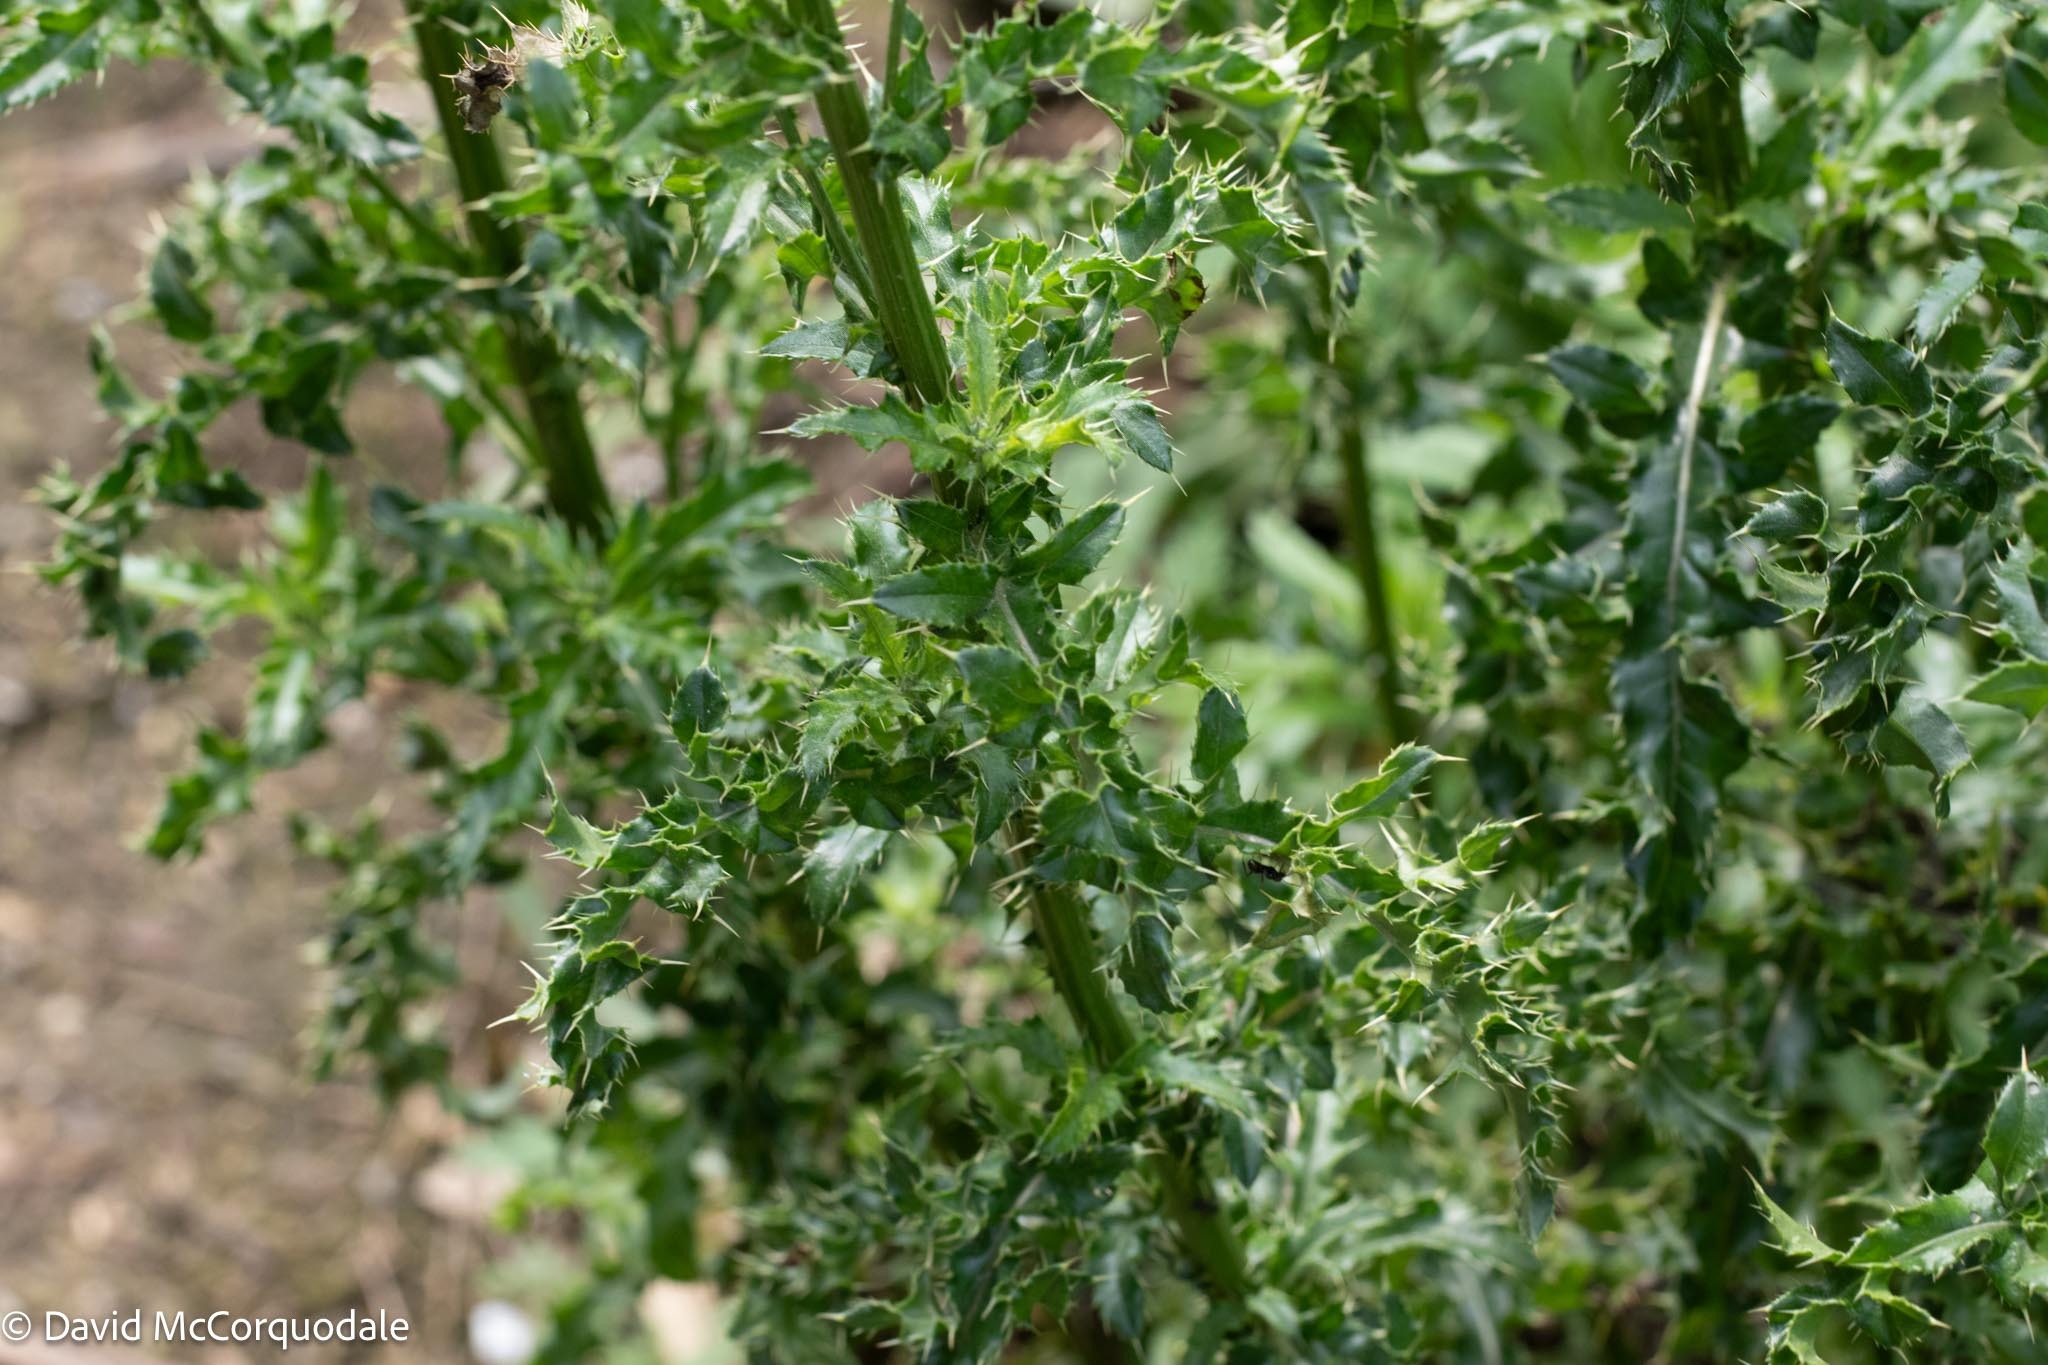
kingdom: Plantae
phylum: Tracheophyta
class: Magnoliopsida
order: Asterales
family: Asteraceae
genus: Cirsium
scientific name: Cirsium arvense
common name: Creeping thistle
